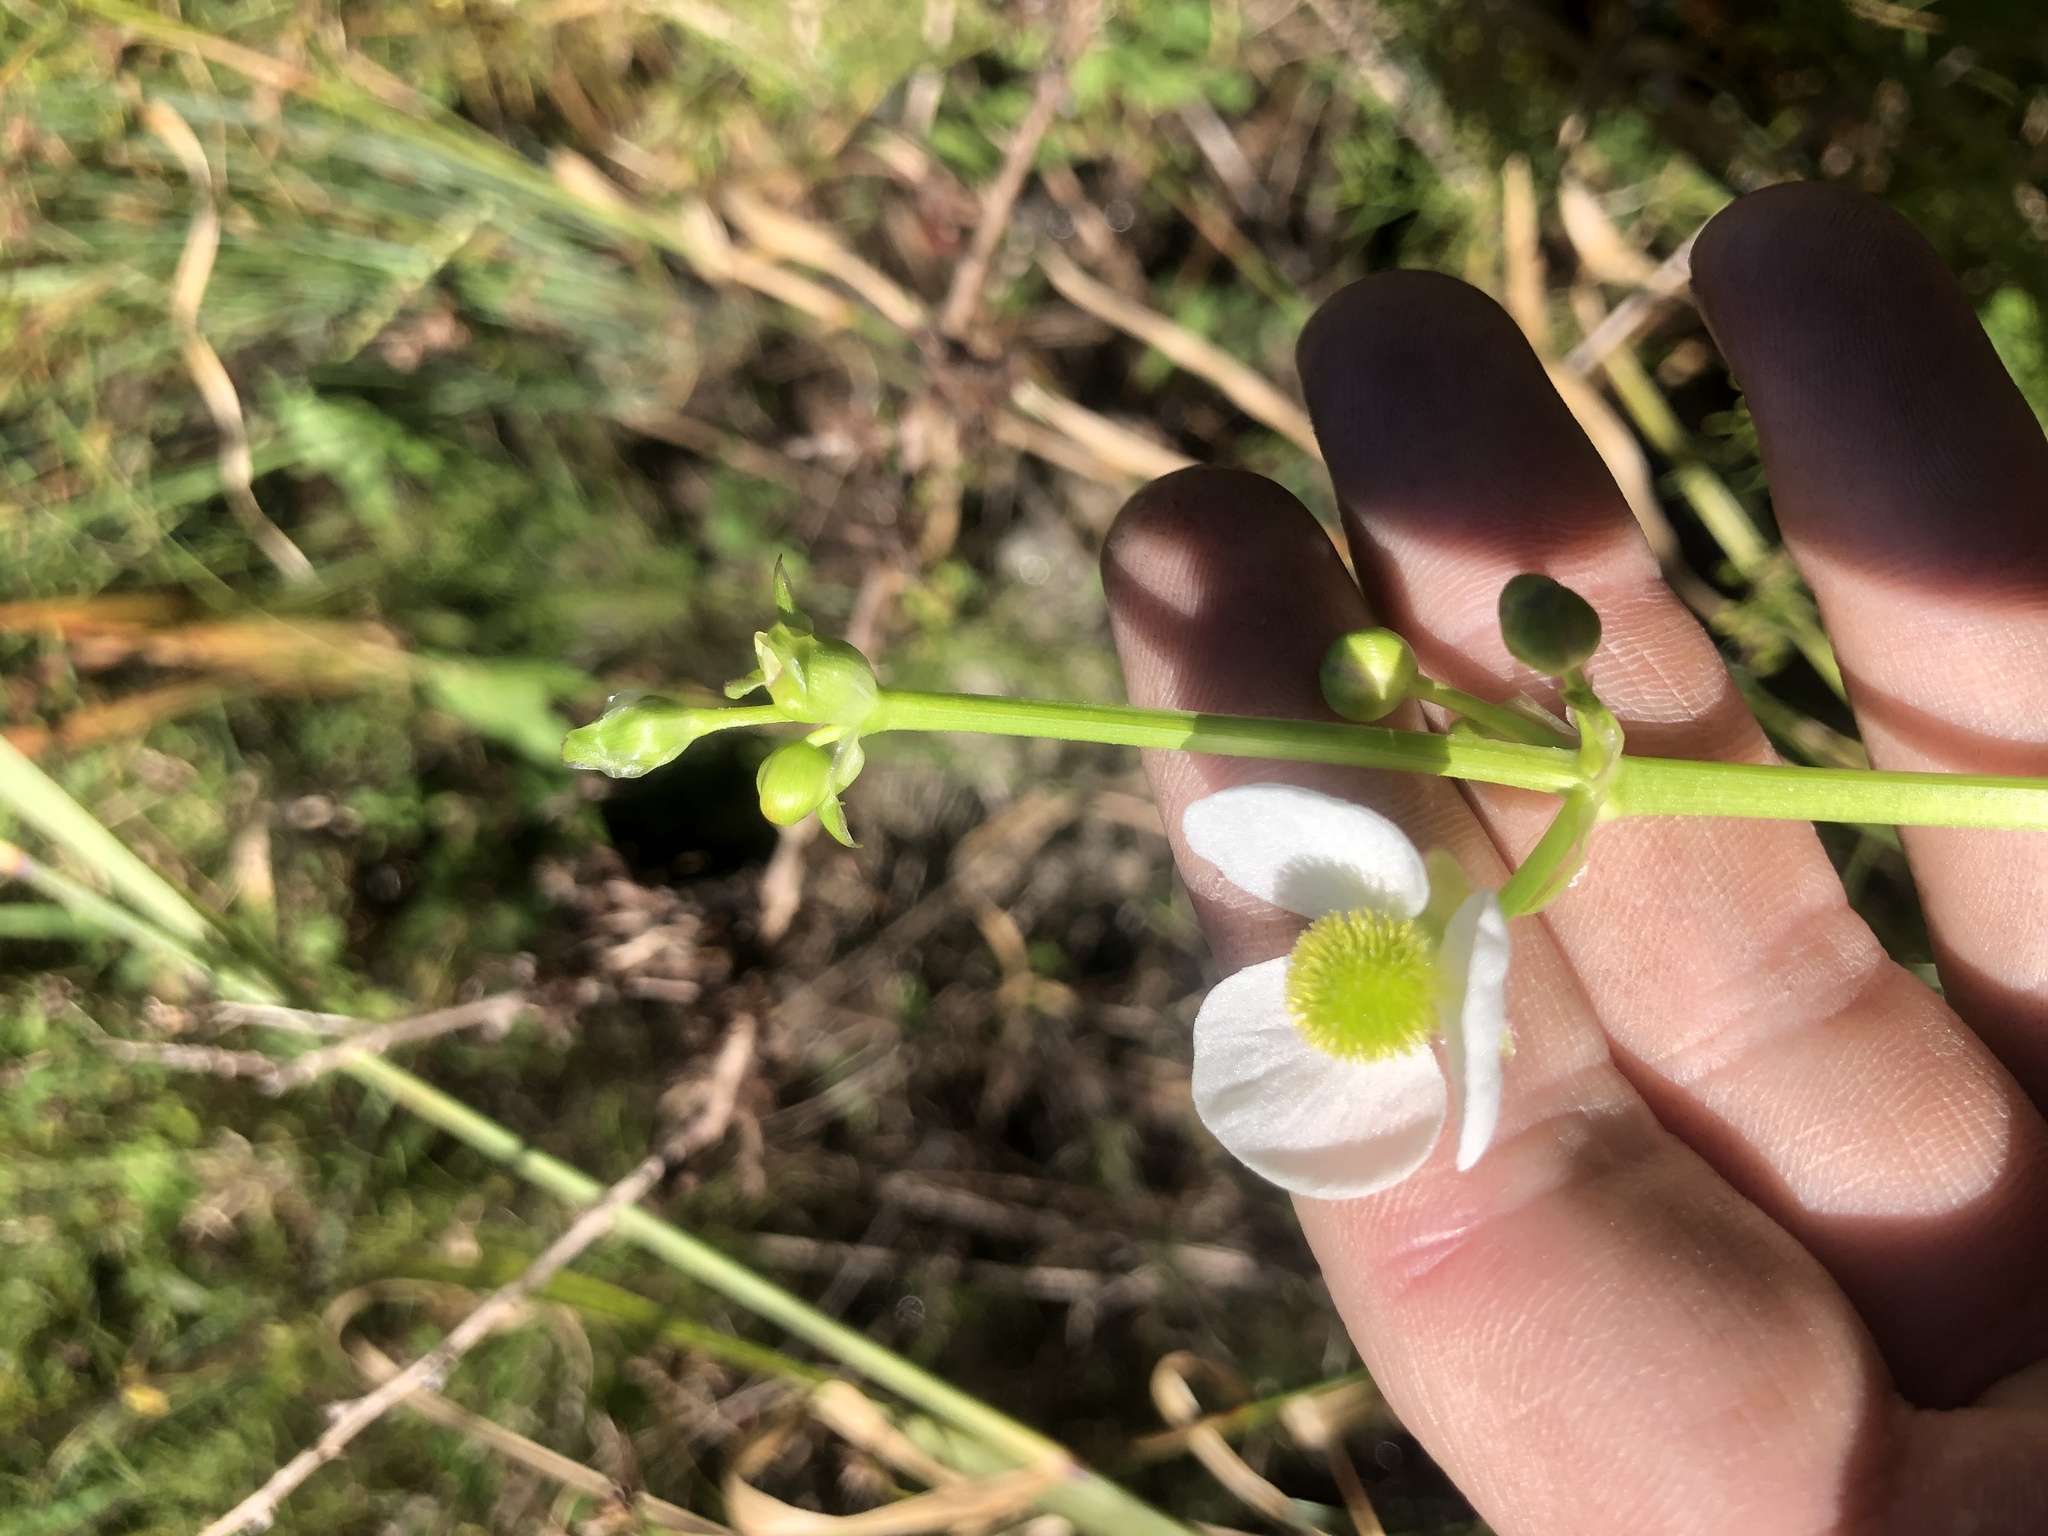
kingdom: Plantae
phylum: Tracheophyta
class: Liliopsida
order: Alismatales
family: Alismataceae
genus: Sagittaria
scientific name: Sagittaria engelmanniana
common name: Acid-water arrowhead
